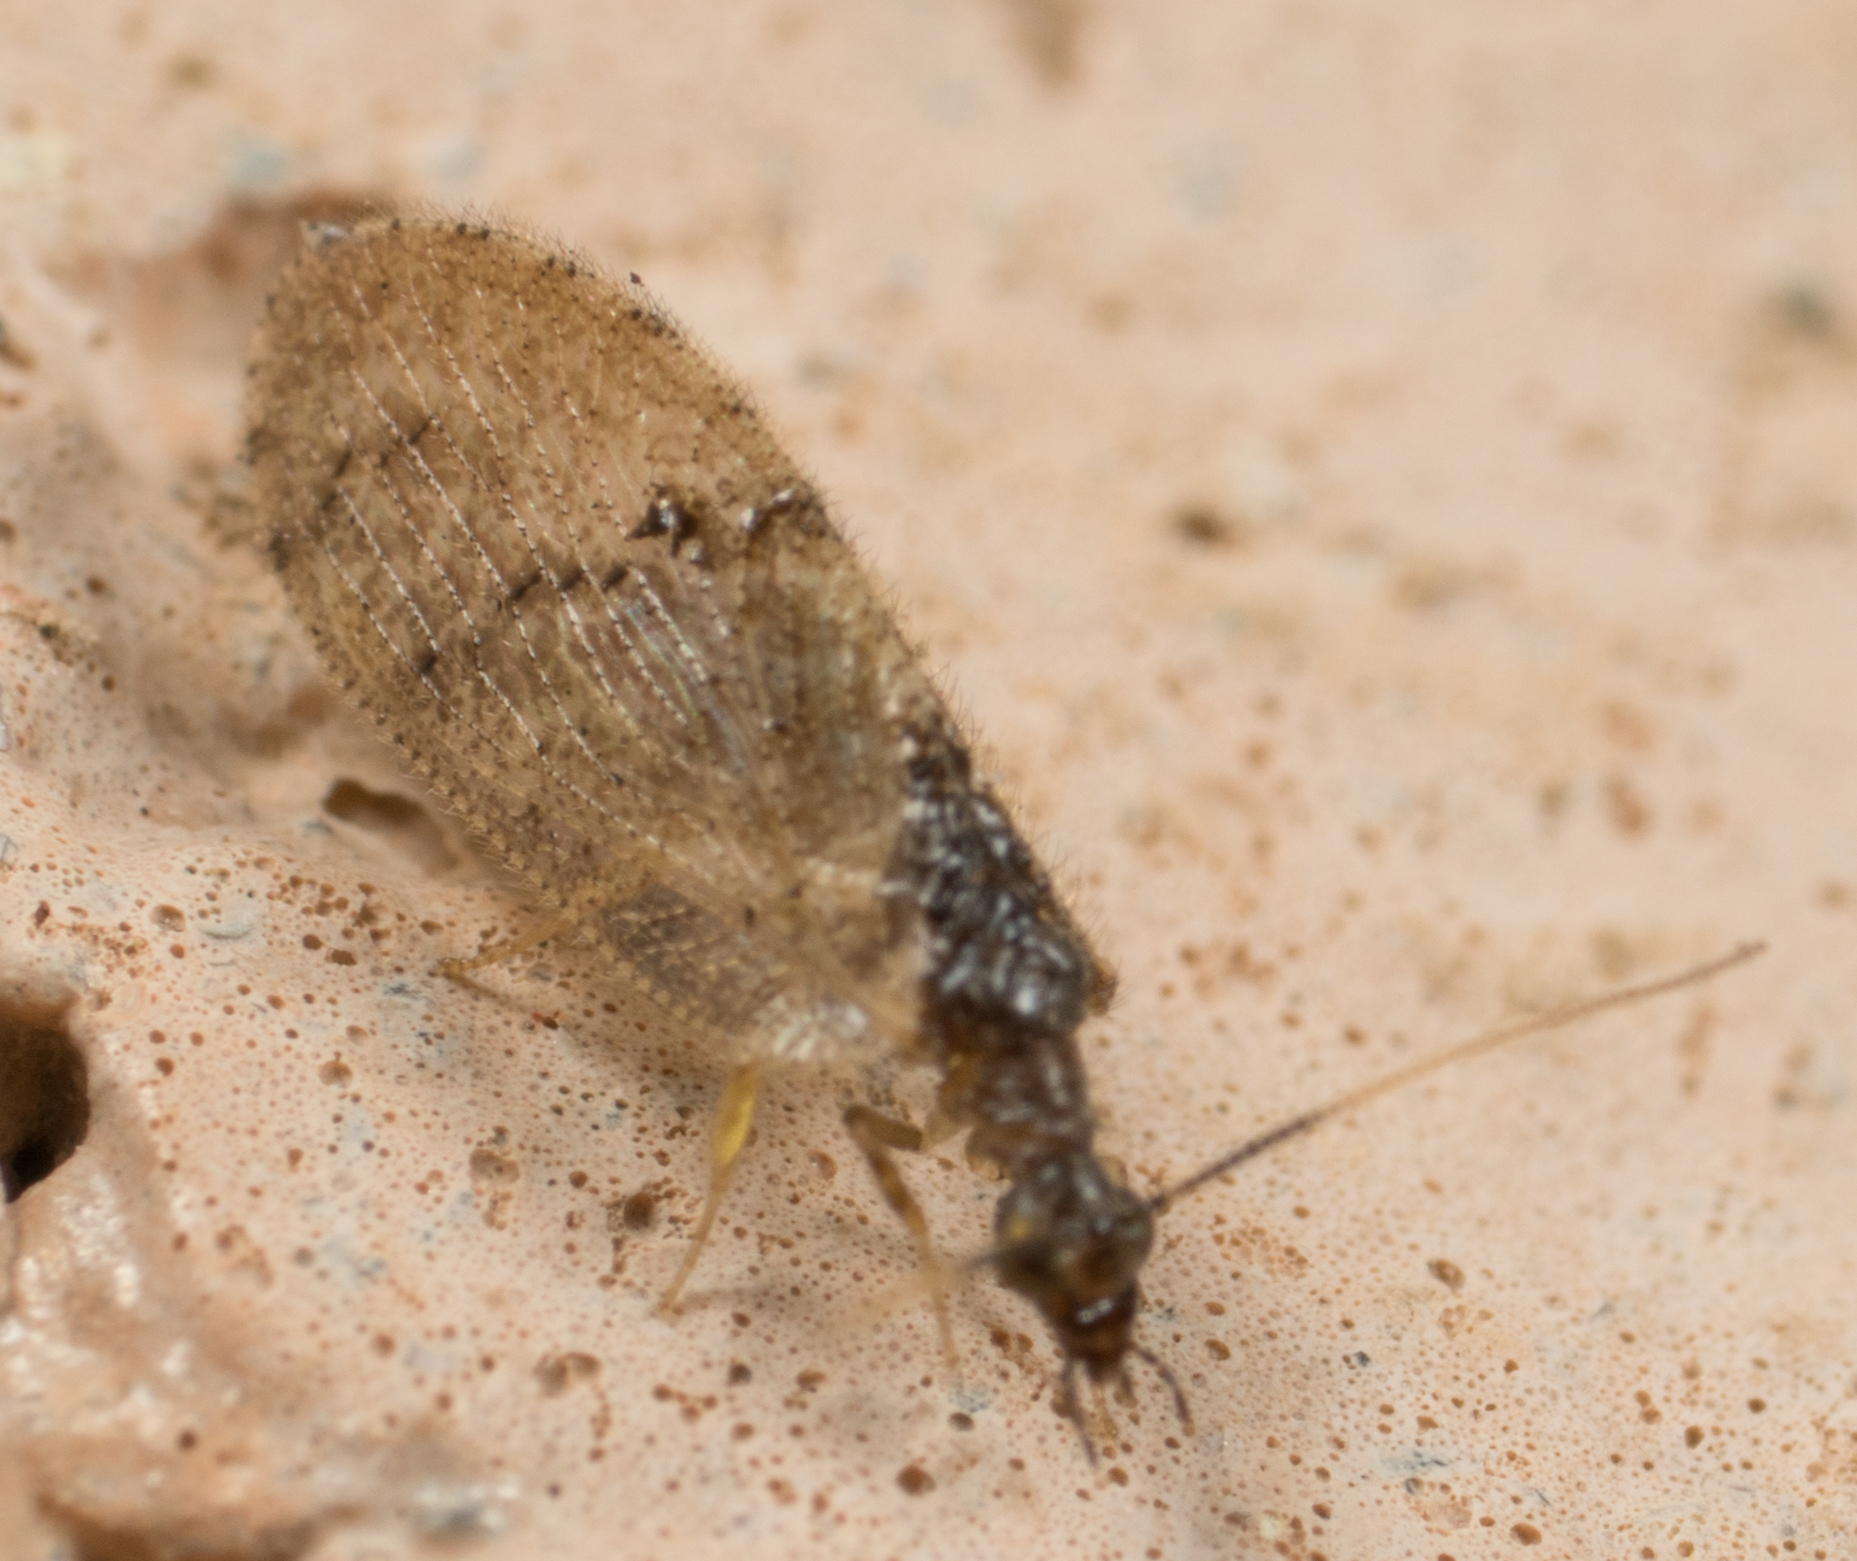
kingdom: Animalia
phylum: Arthropoda
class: Insecta
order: Neuroptera
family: Hemerobiidae
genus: Sympherobius
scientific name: Sympherobius barberi
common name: Brown lacewing
